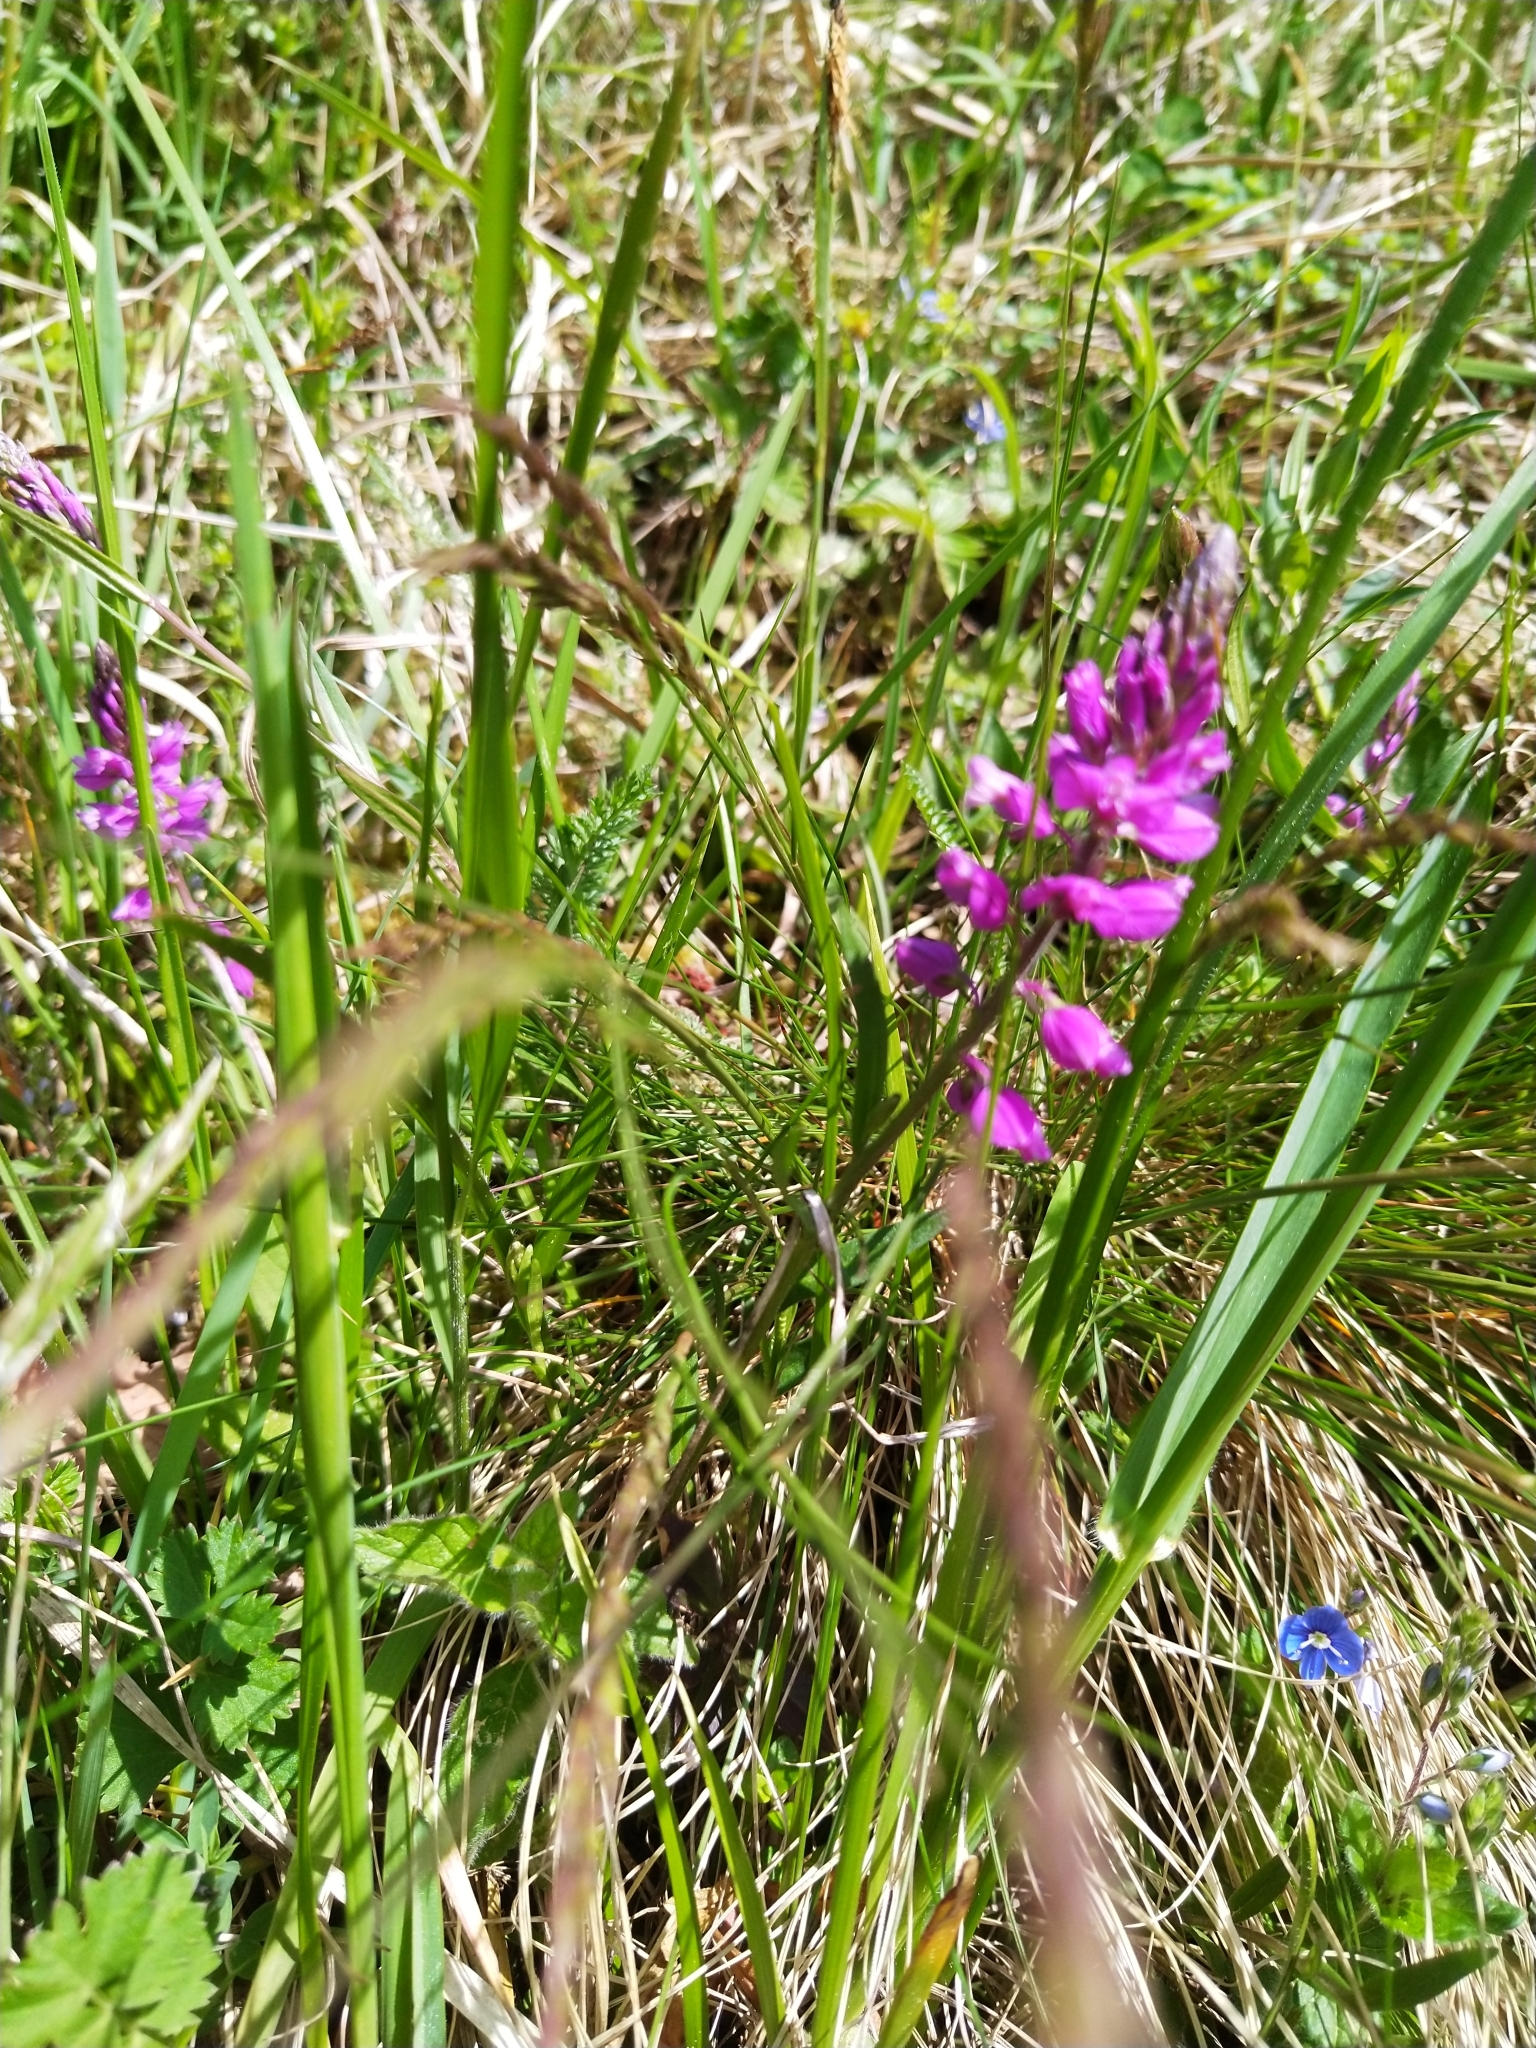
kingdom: Plantae
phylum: Tracheophyta
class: Magnoliopsida
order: Fabales
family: Polygalaceae
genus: Polygala
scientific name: Polygala comosa
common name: Tufted milkwort
